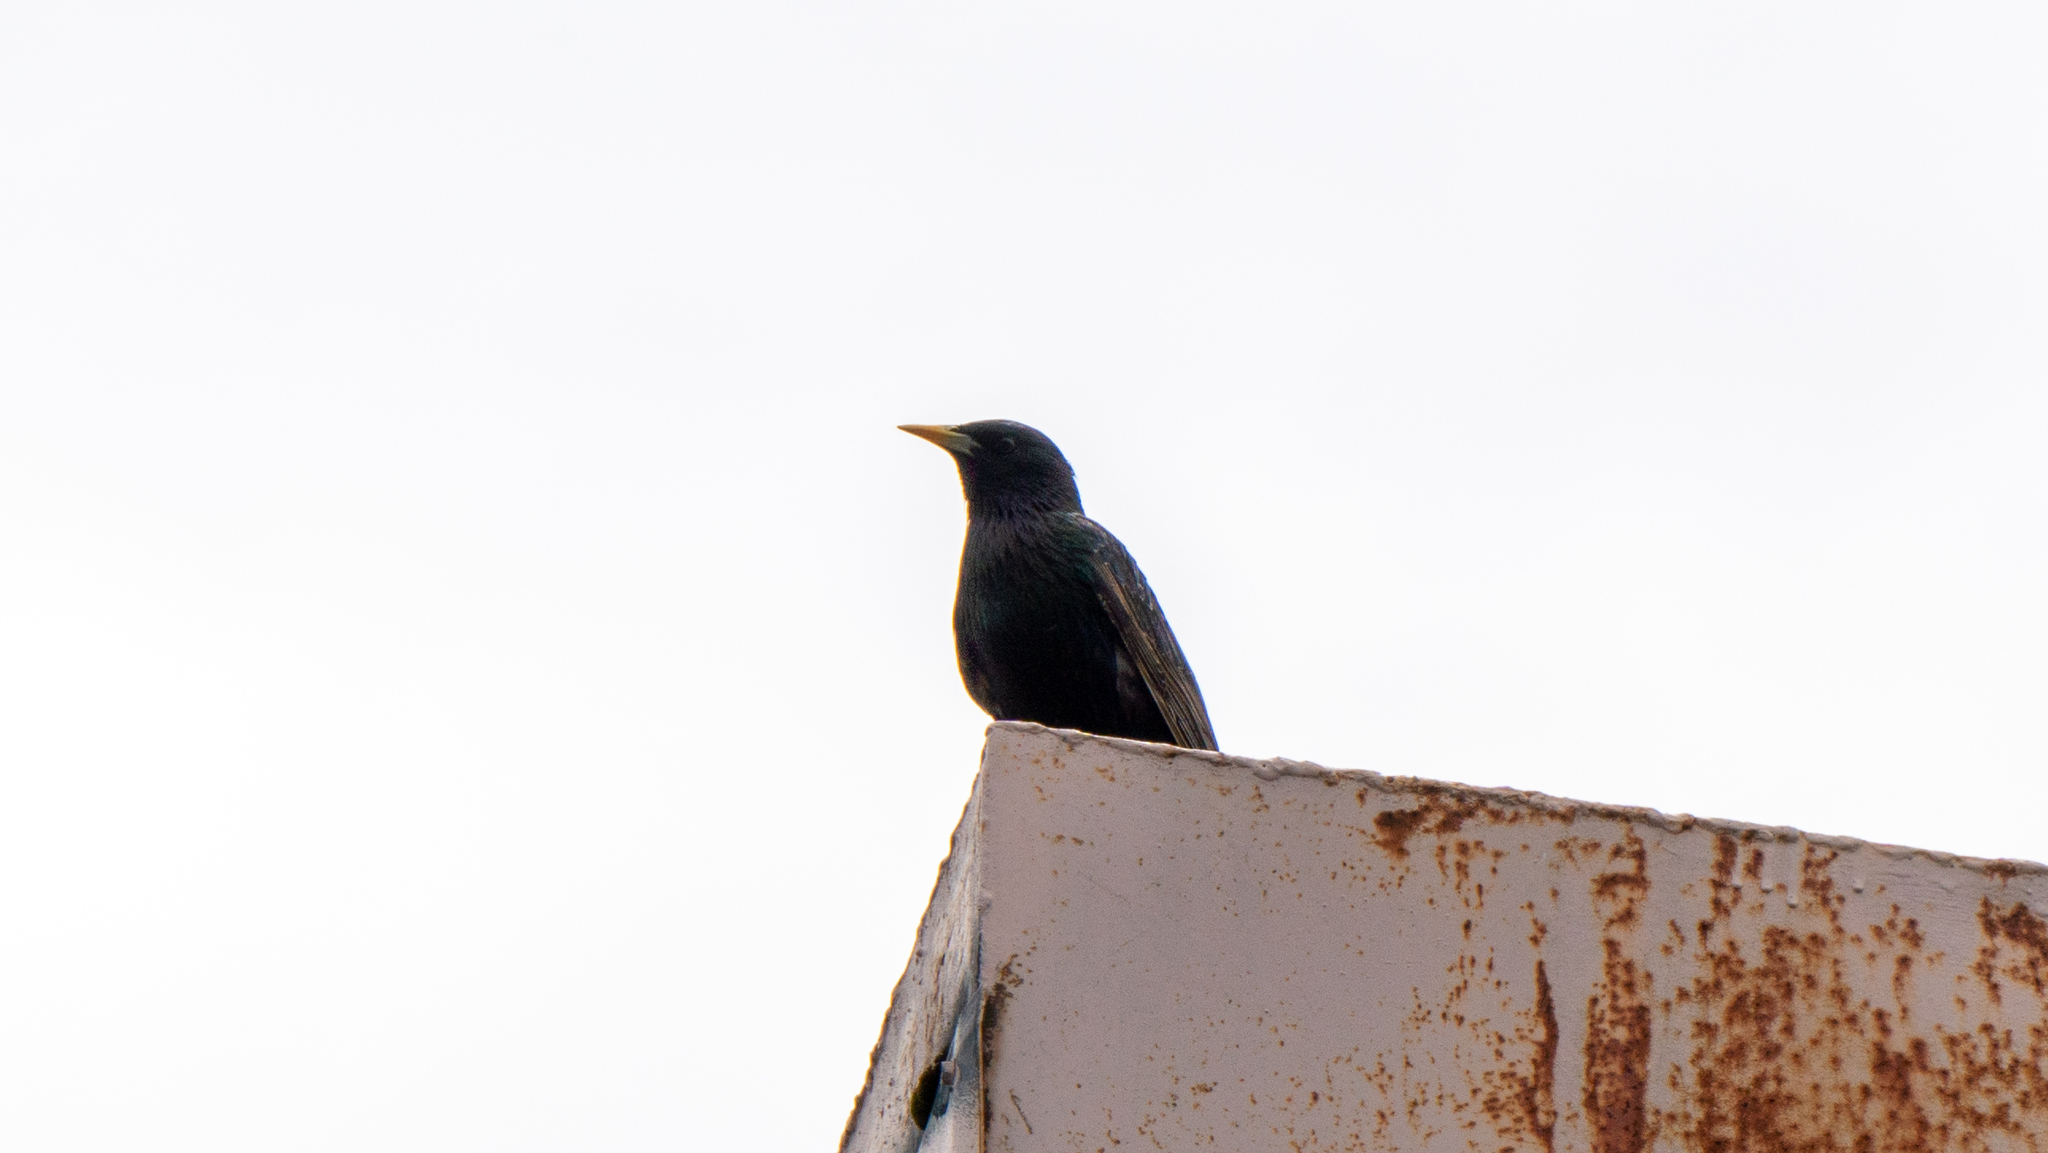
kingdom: Animalia
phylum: Chordata
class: Aves
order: Passeriformes
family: Sturnidae
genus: Sturnus
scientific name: Sturnus vulgaris
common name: Common starling
